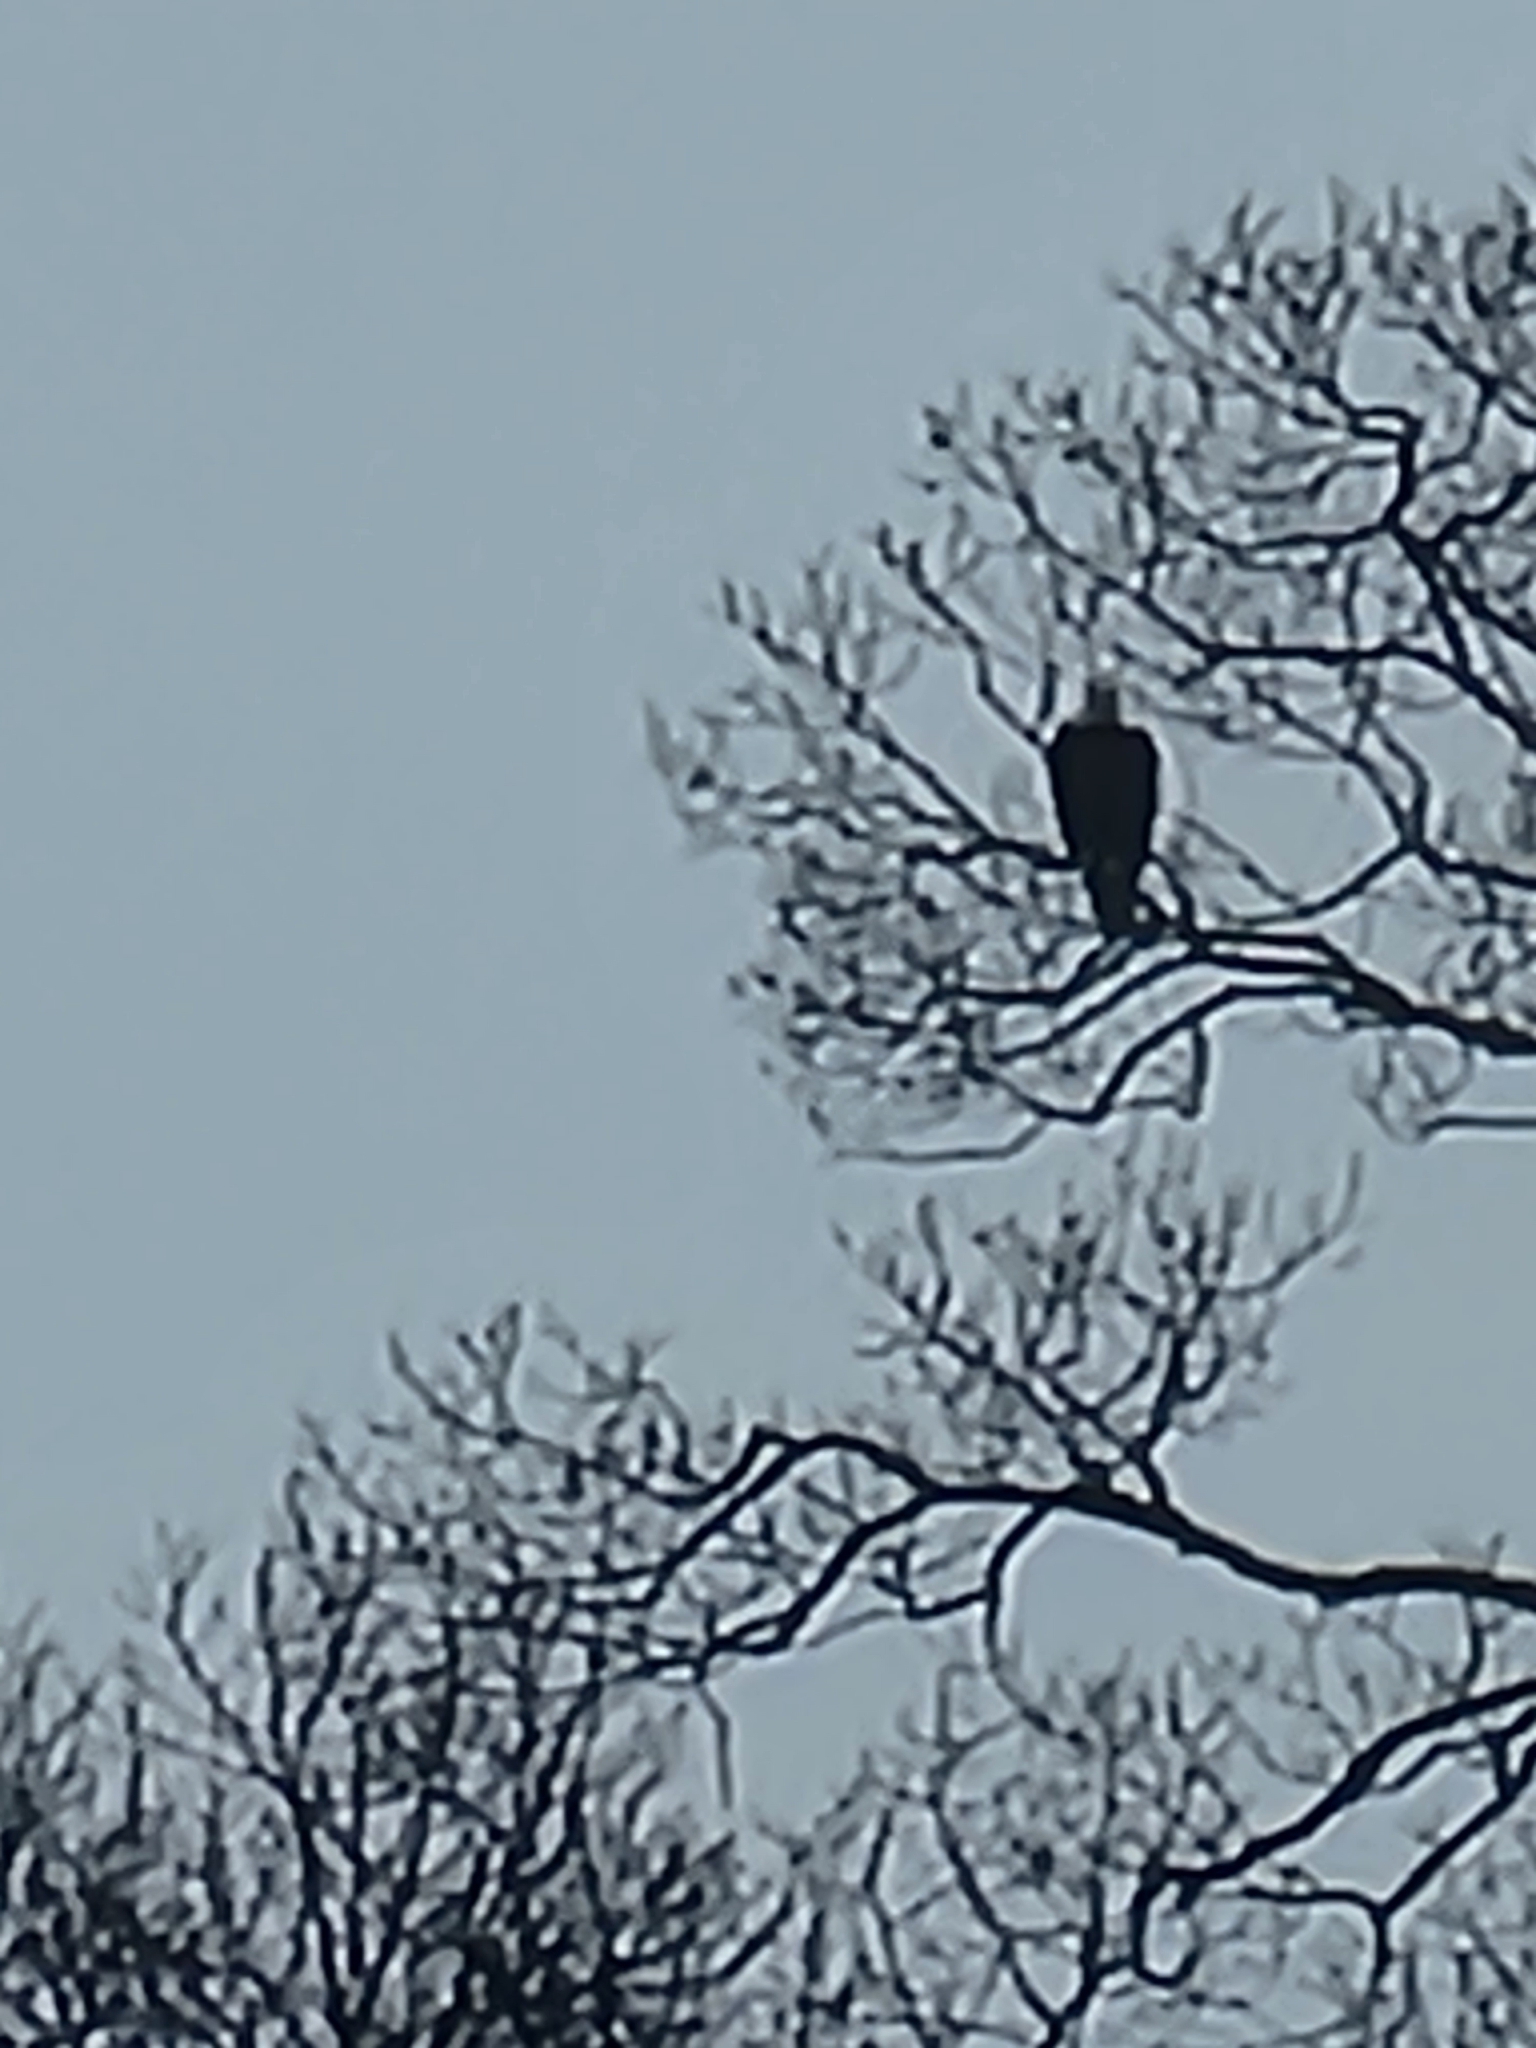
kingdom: Animalia
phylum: Chordata
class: Aves
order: Accipitriformes
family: Accipitridae
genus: Haliaeetus
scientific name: Haliaeetus leucocephalus
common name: Bald eagle
